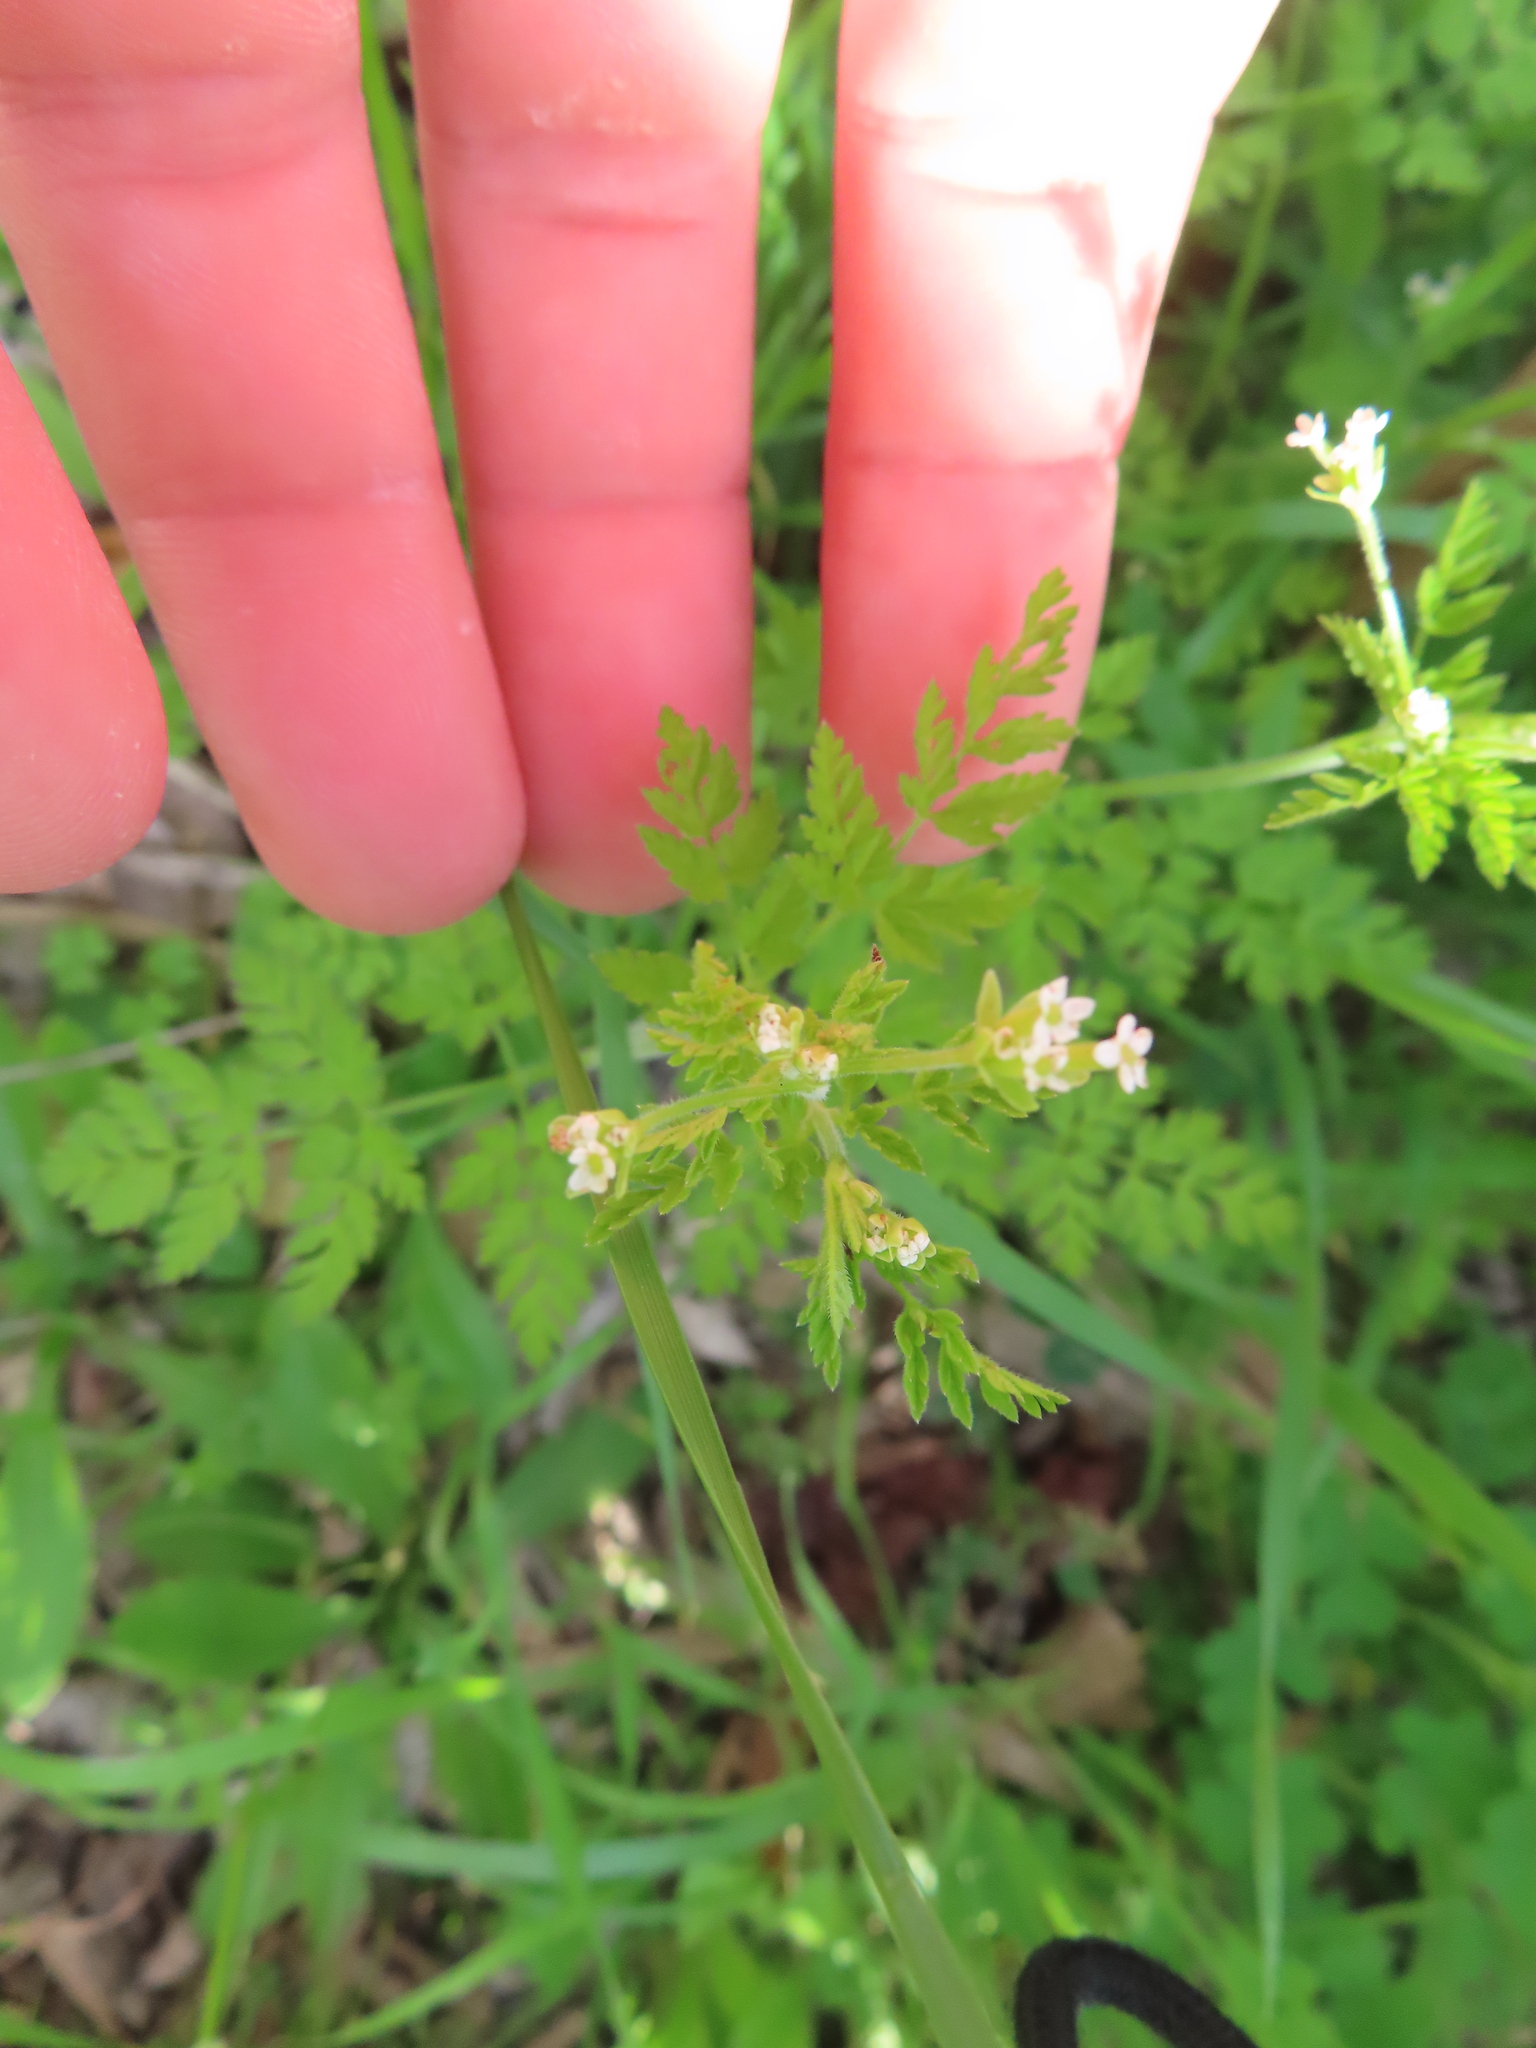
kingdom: Plantae
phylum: Tracheophyta
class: Magnoliopsida
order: Apiales
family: Apiaceae
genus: Chaerophyllum
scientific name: Chaerophyllum tainturieri
